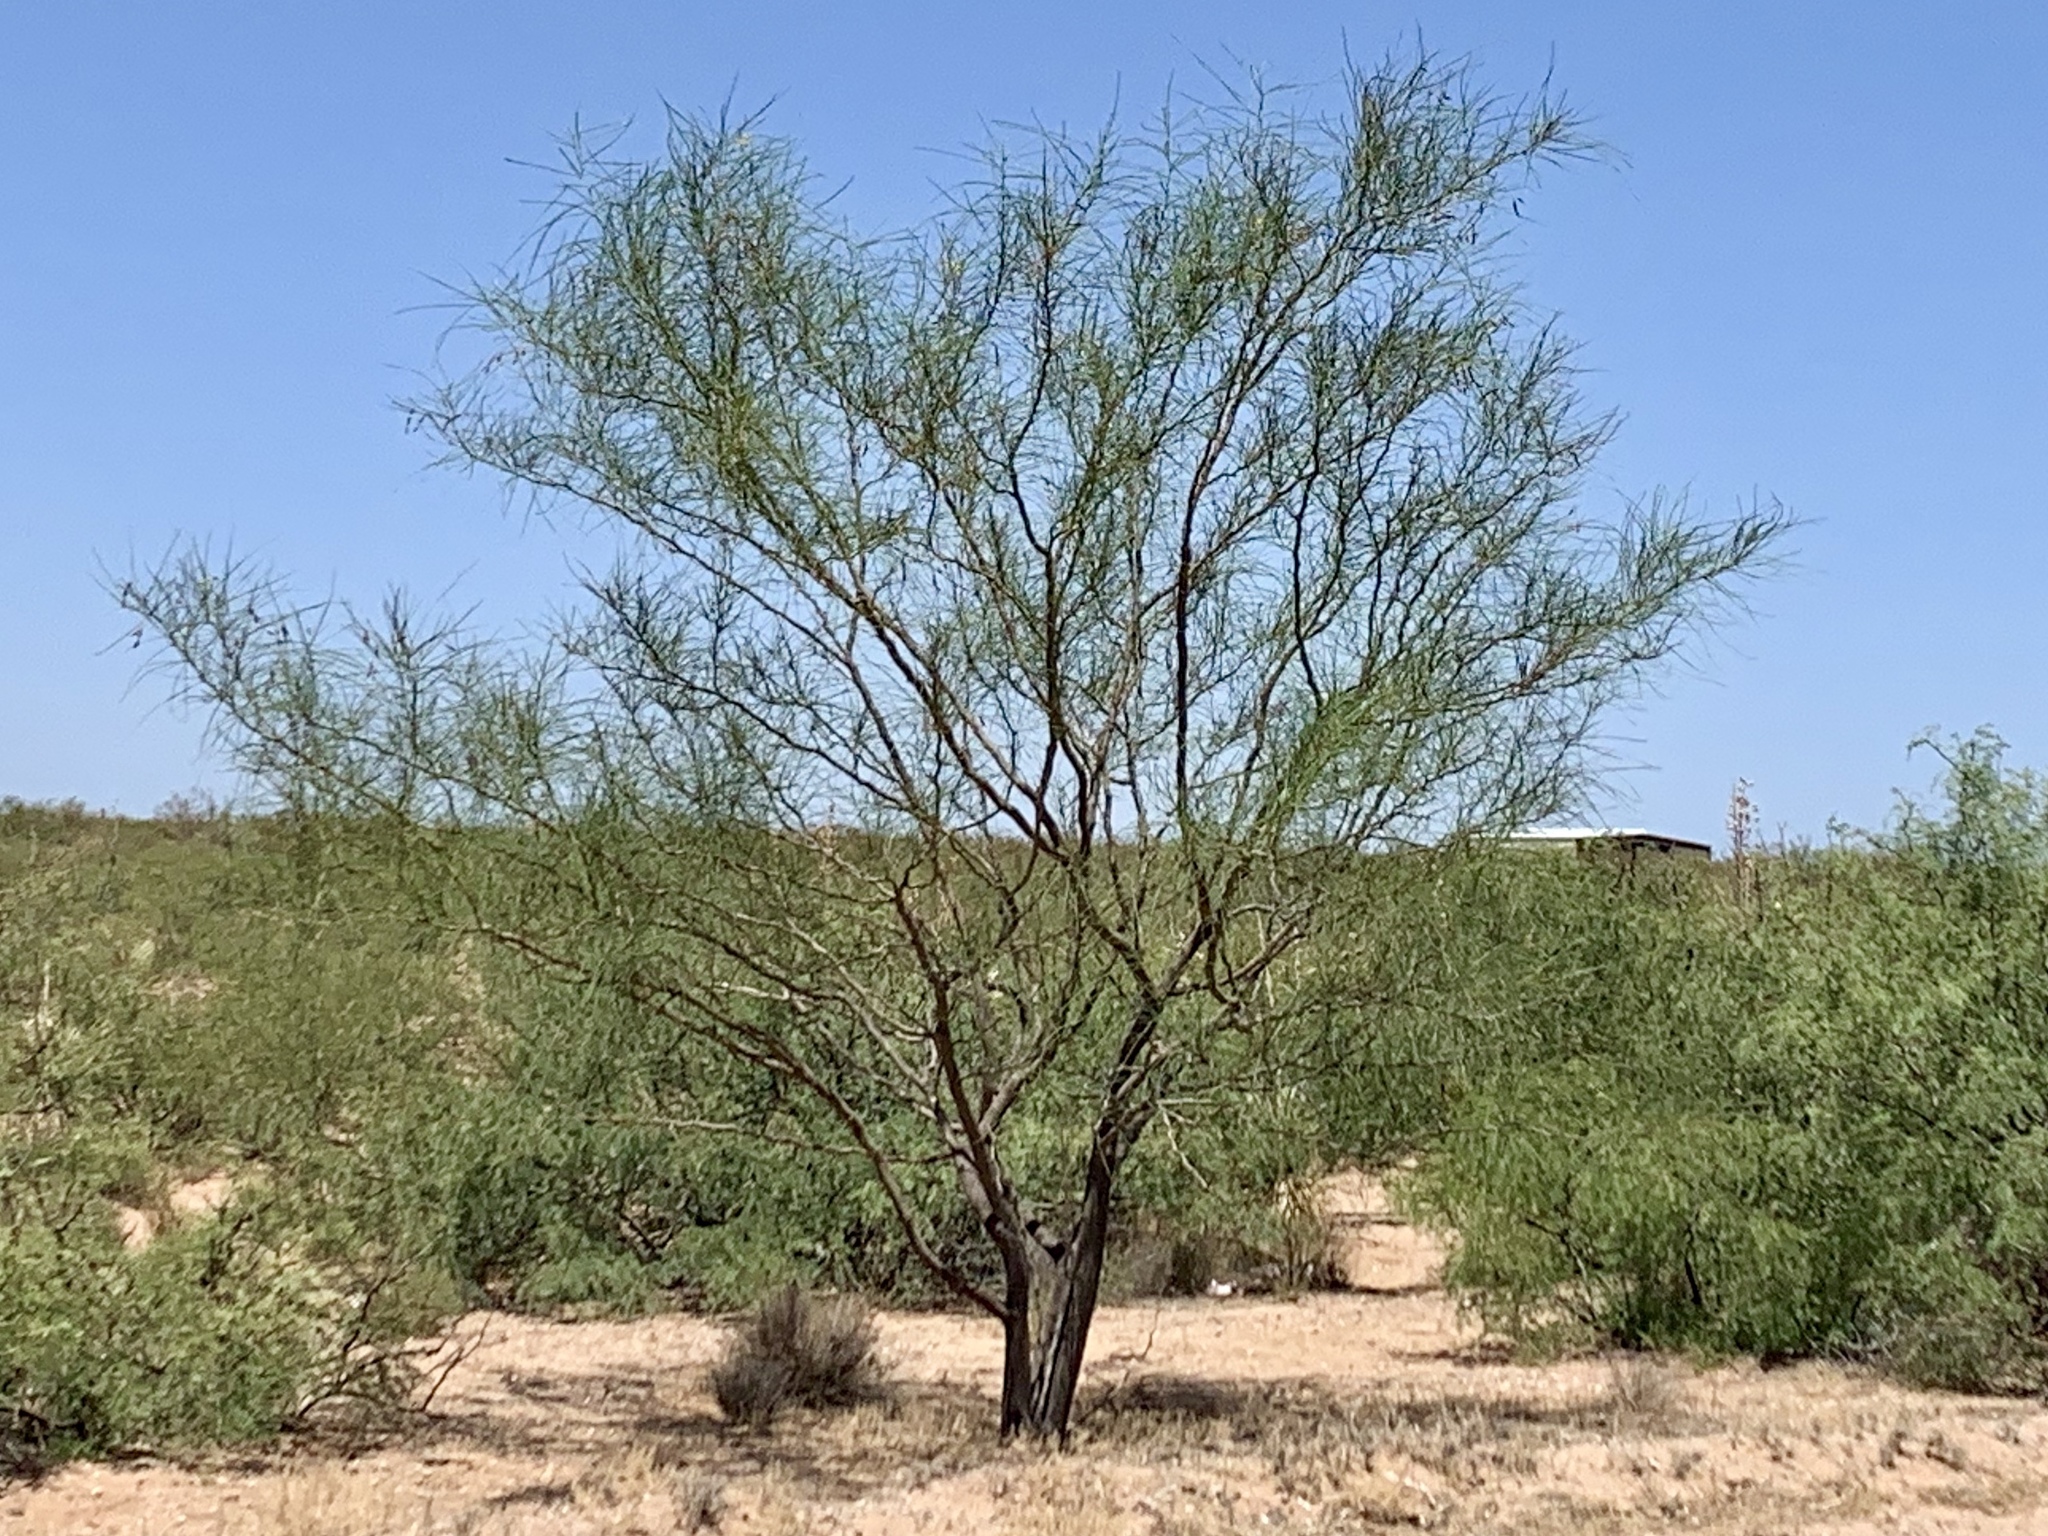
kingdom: Plantae
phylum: Tracheophyta
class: Magnoliopsida
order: Fabales
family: Fabaceae
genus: Parkinsonia
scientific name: Parkinsonia aculeata
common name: Jerusalem thorn
